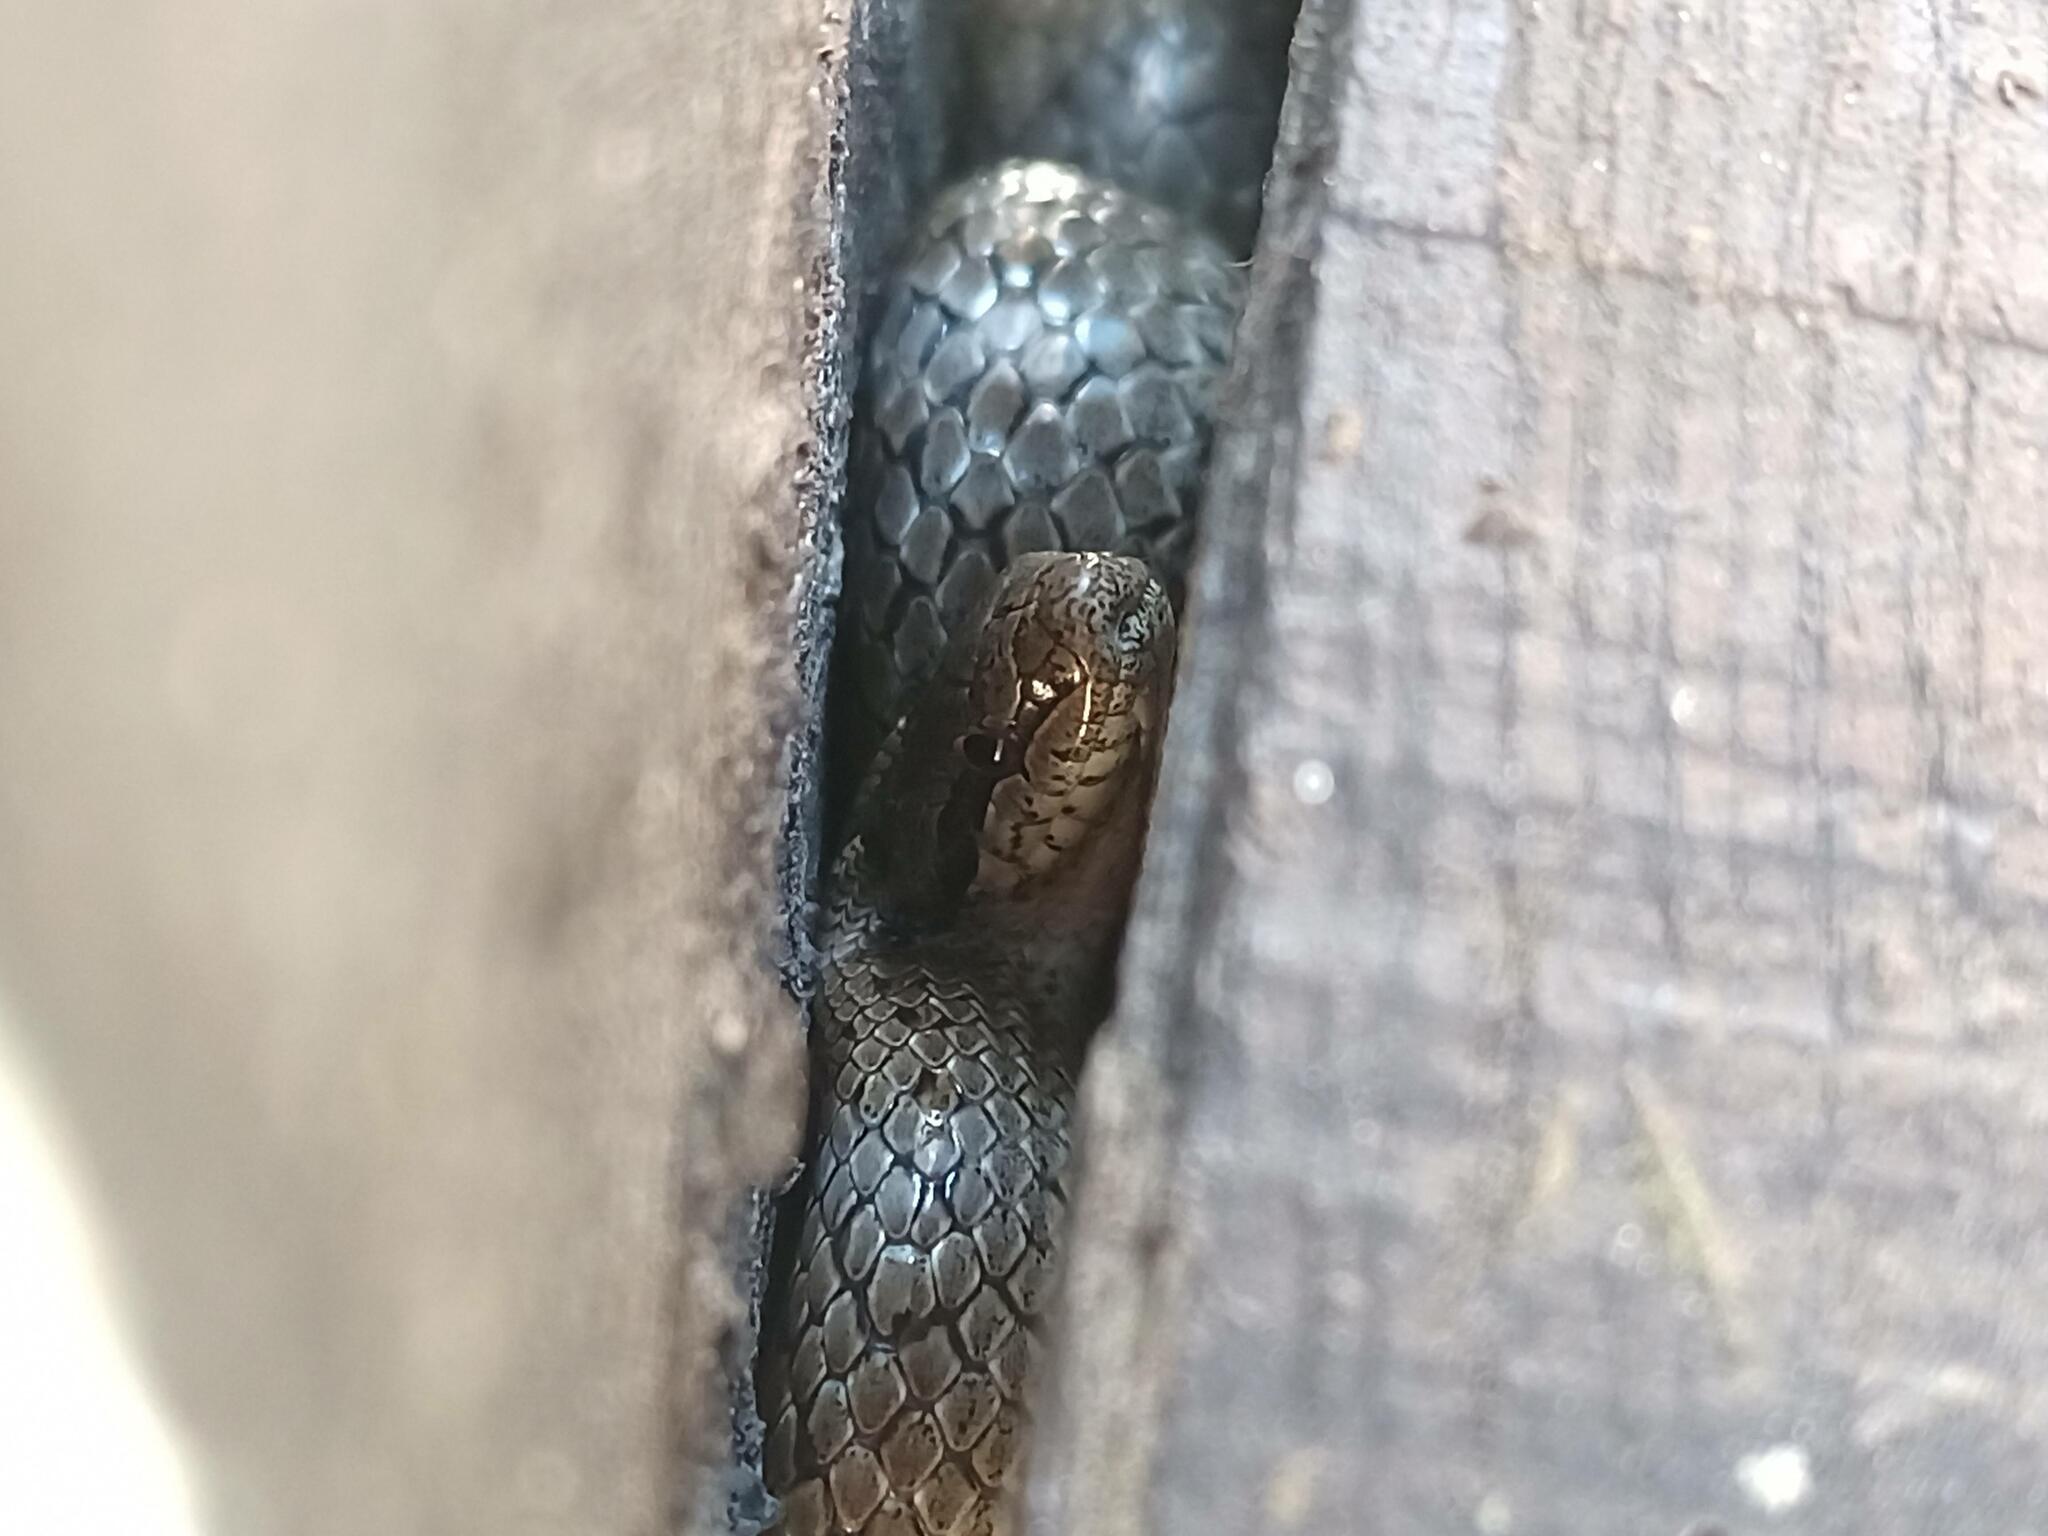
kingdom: Animalia
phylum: Chordata
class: Squamata
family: Colubridae
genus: Coronella
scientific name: Coronella austriaca
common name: Smooth snake
